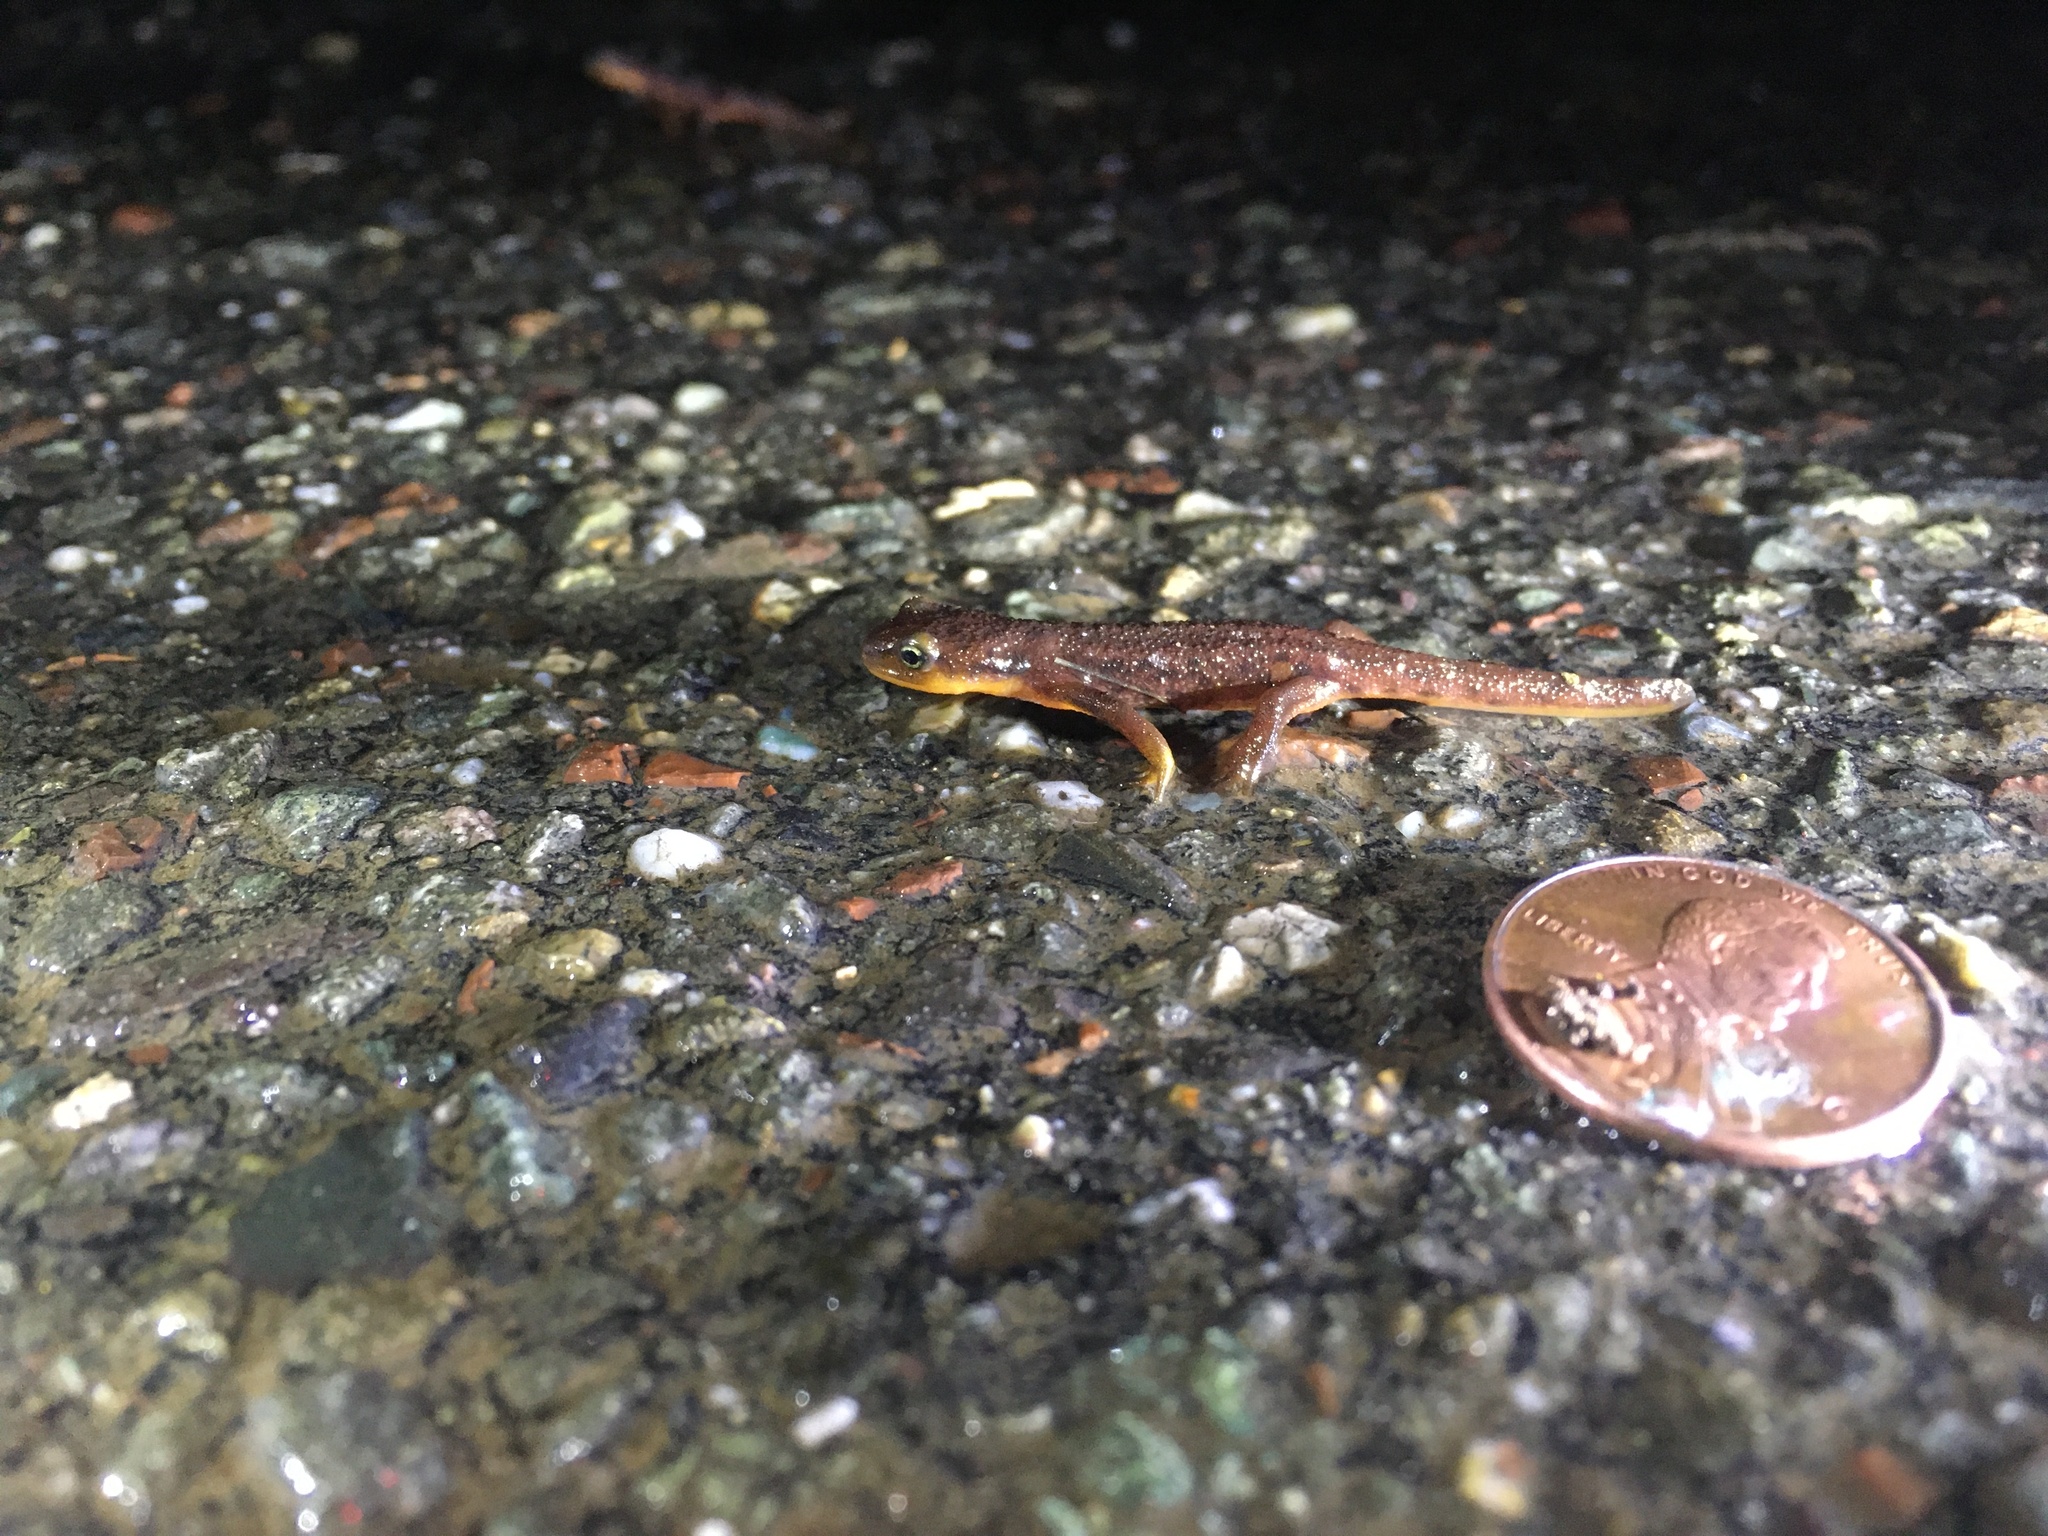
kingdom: Animalia
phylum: Chordata
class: Amphibia
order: Caudata
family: Salamandridae
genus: Taricha
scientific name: Taricha torosa
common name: California newt
